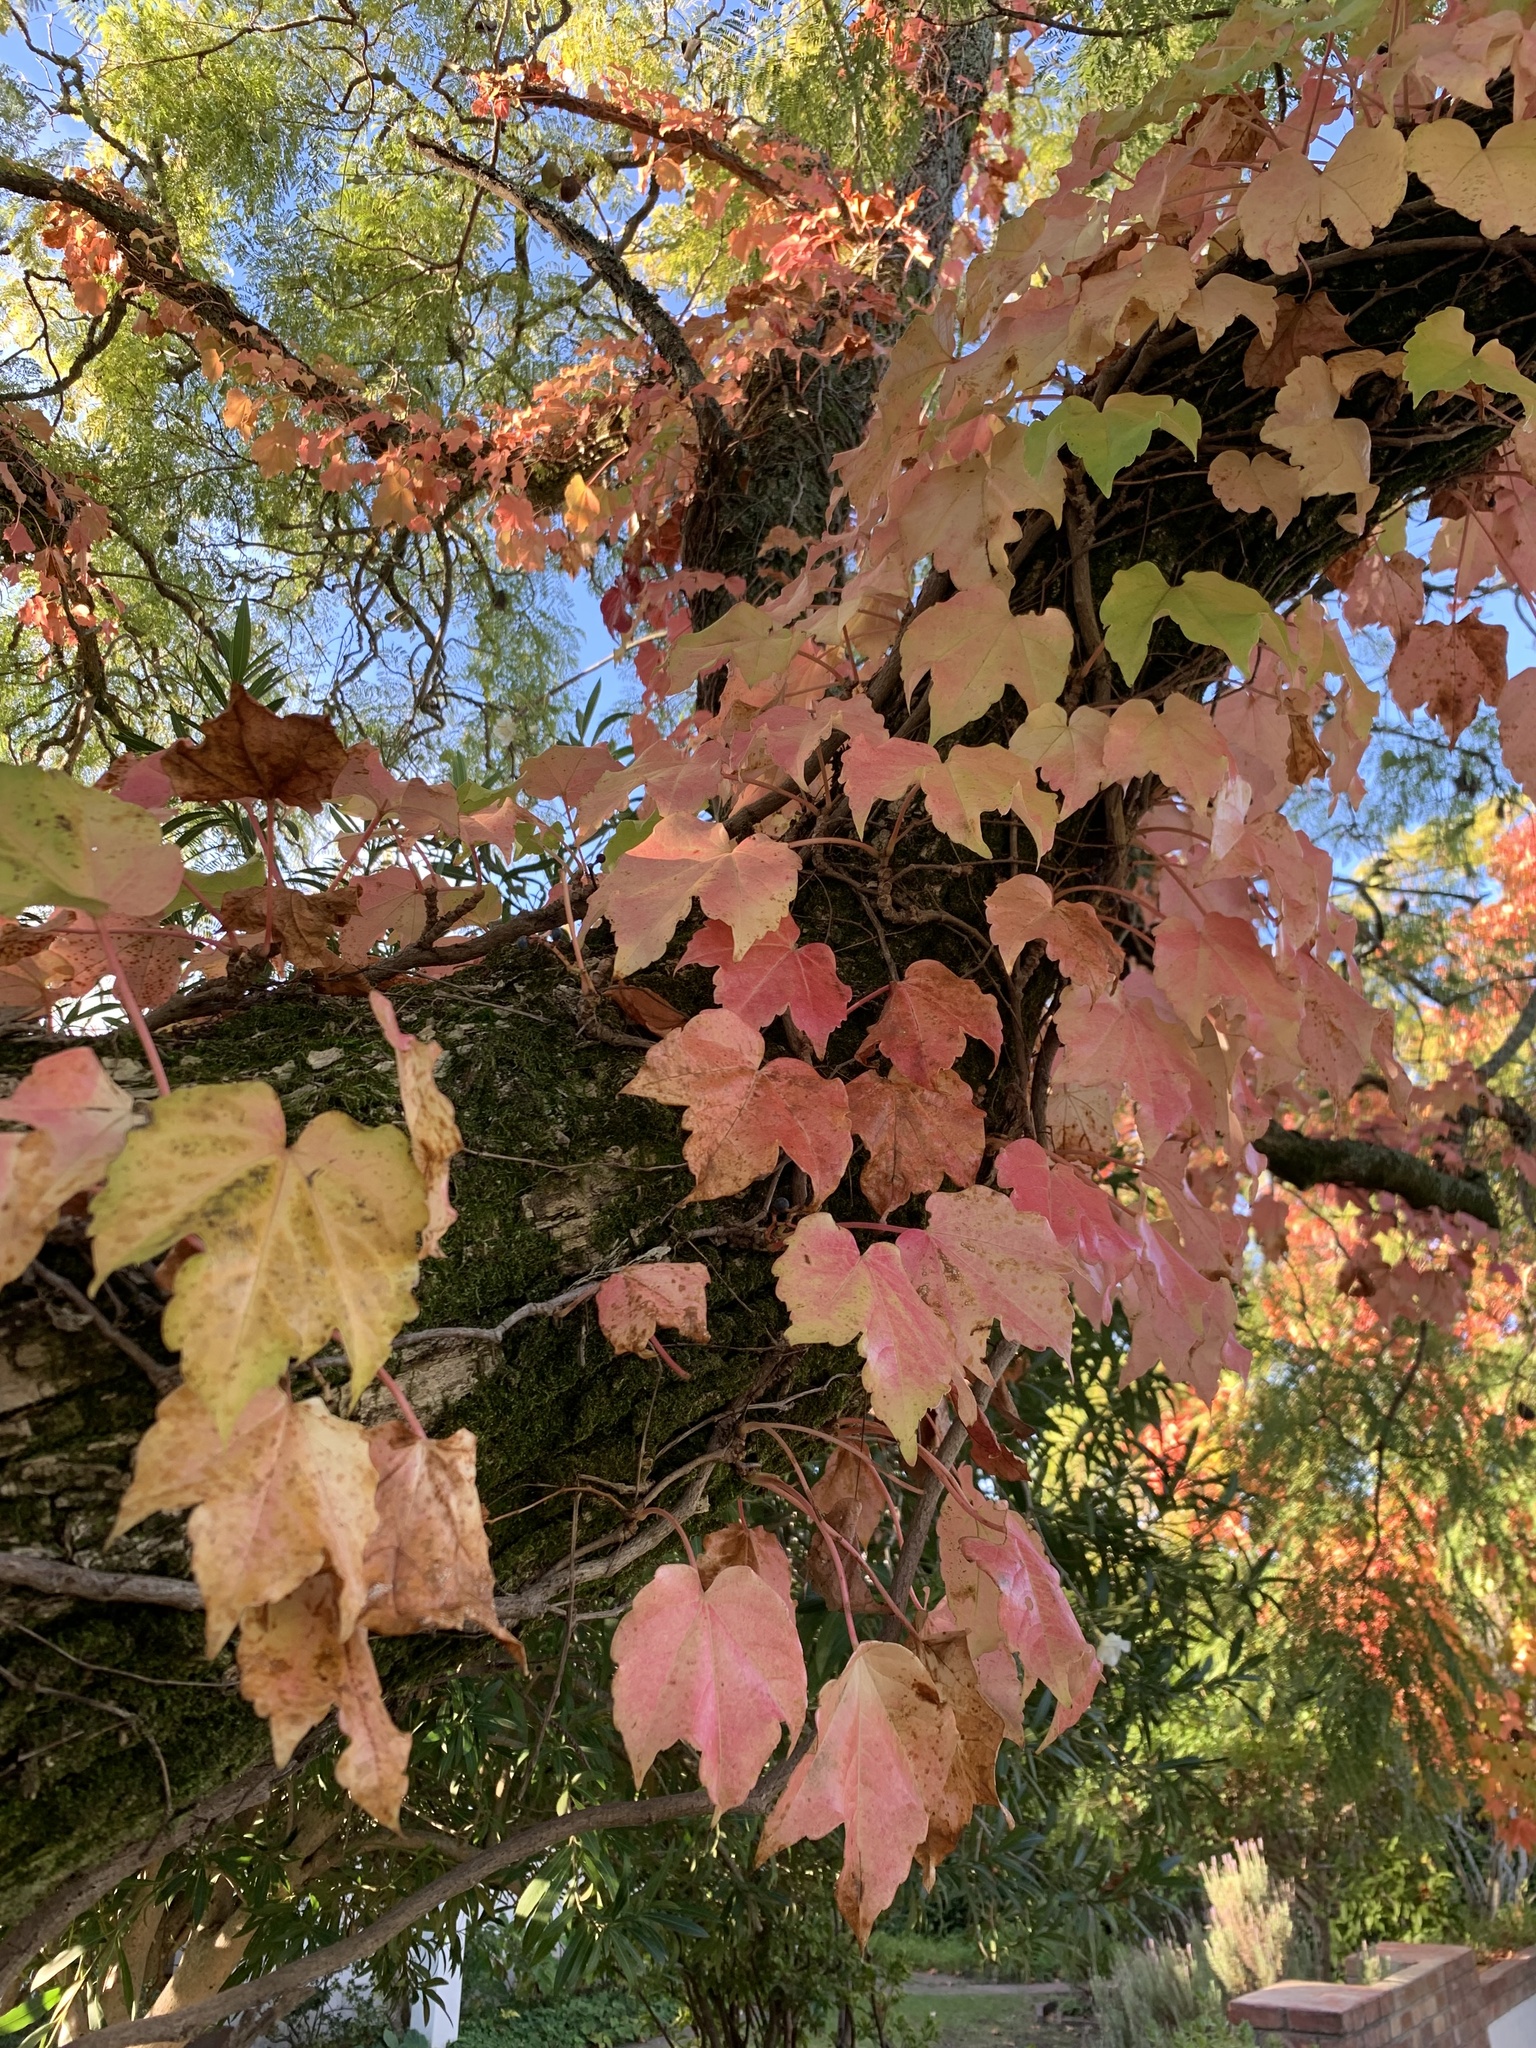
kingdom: Plantae
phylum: Tracheophyta
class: Magnoliopsida
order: Vitales
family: Vitaceae
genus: Parthenocissus
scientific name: Parthenocissus tricuspidata
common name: Boston ivy
